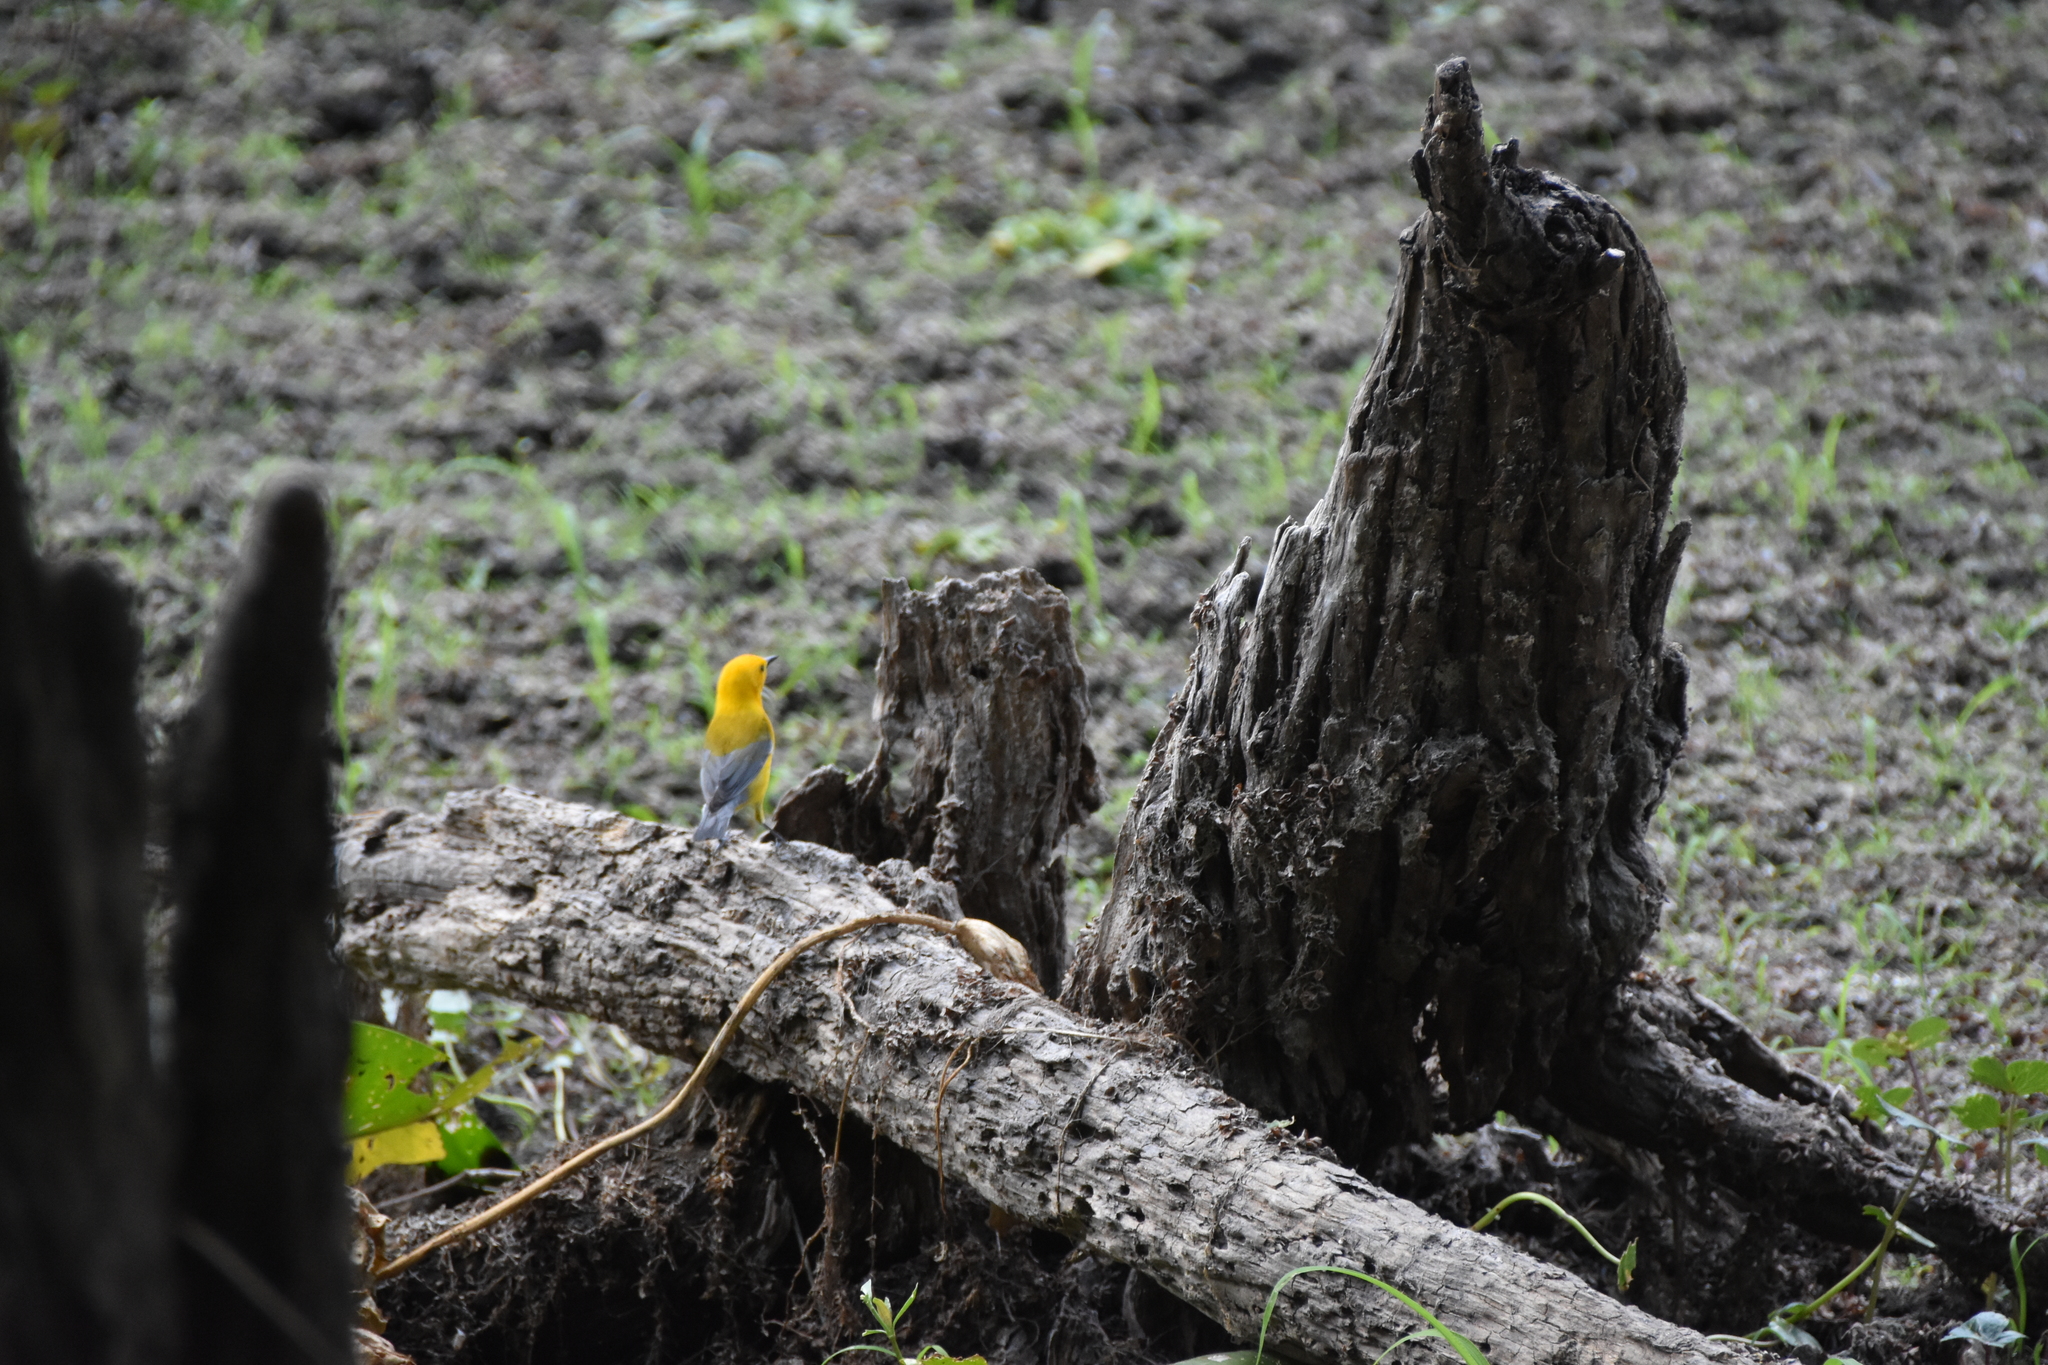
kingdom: Animalia
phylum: Chordata
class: Aves
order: Passeriformes
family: Parulidae
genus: Protonotaria
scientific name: Protonotaria citrea
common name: Prothonotary warbler
